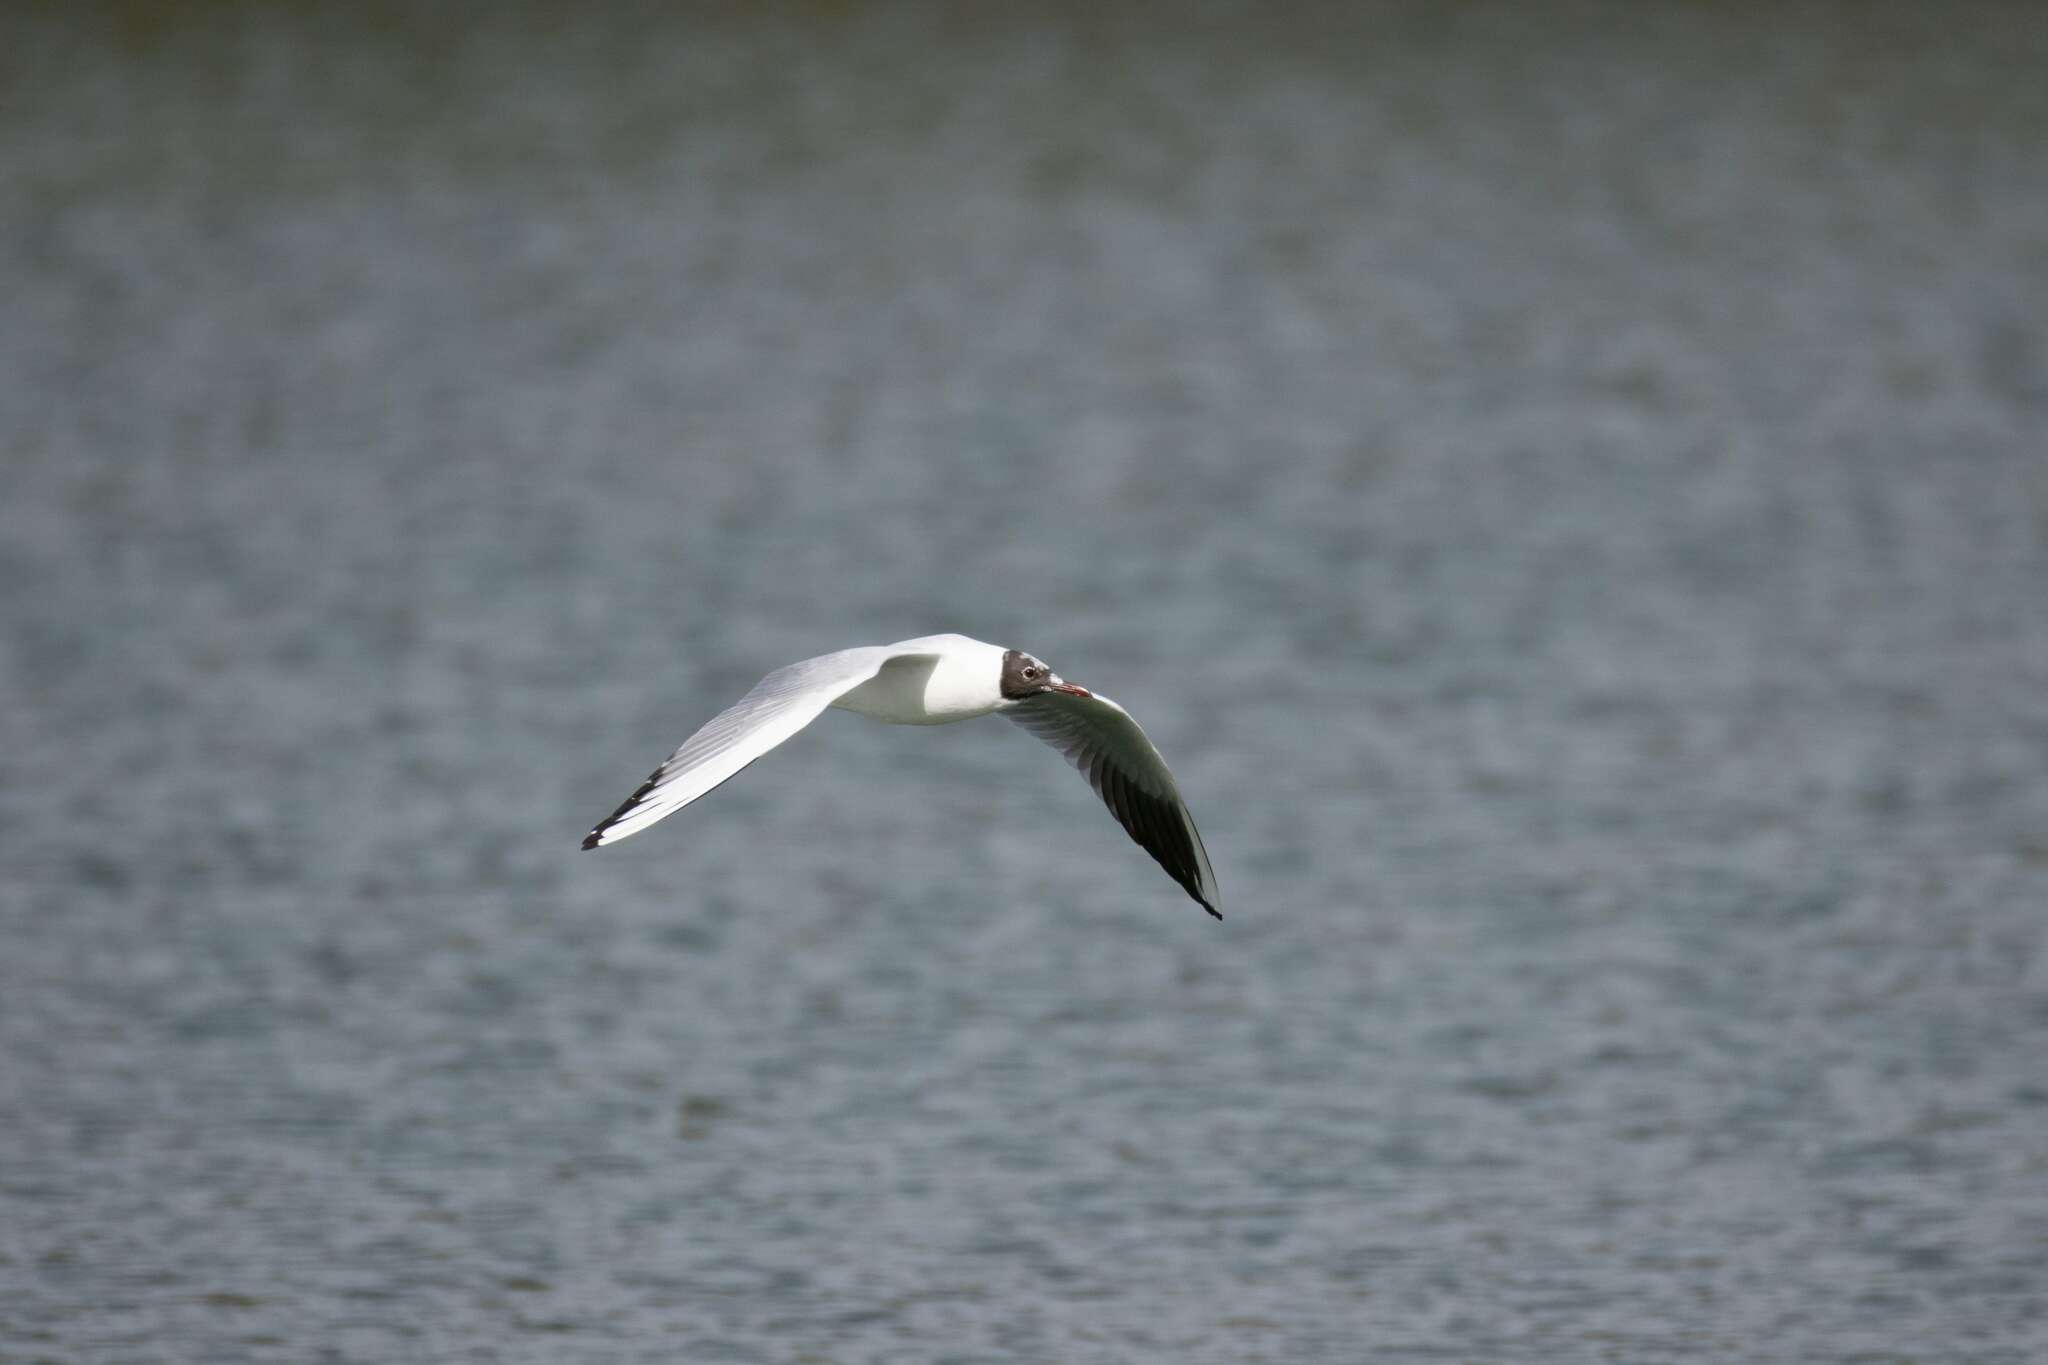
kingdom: Animalia
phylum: Chordata
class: Aves
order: Charadriiformes
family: Laridae
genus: Chroicocephalus
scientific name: Chroicocephalus ridibundus
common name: Black-headed gull
